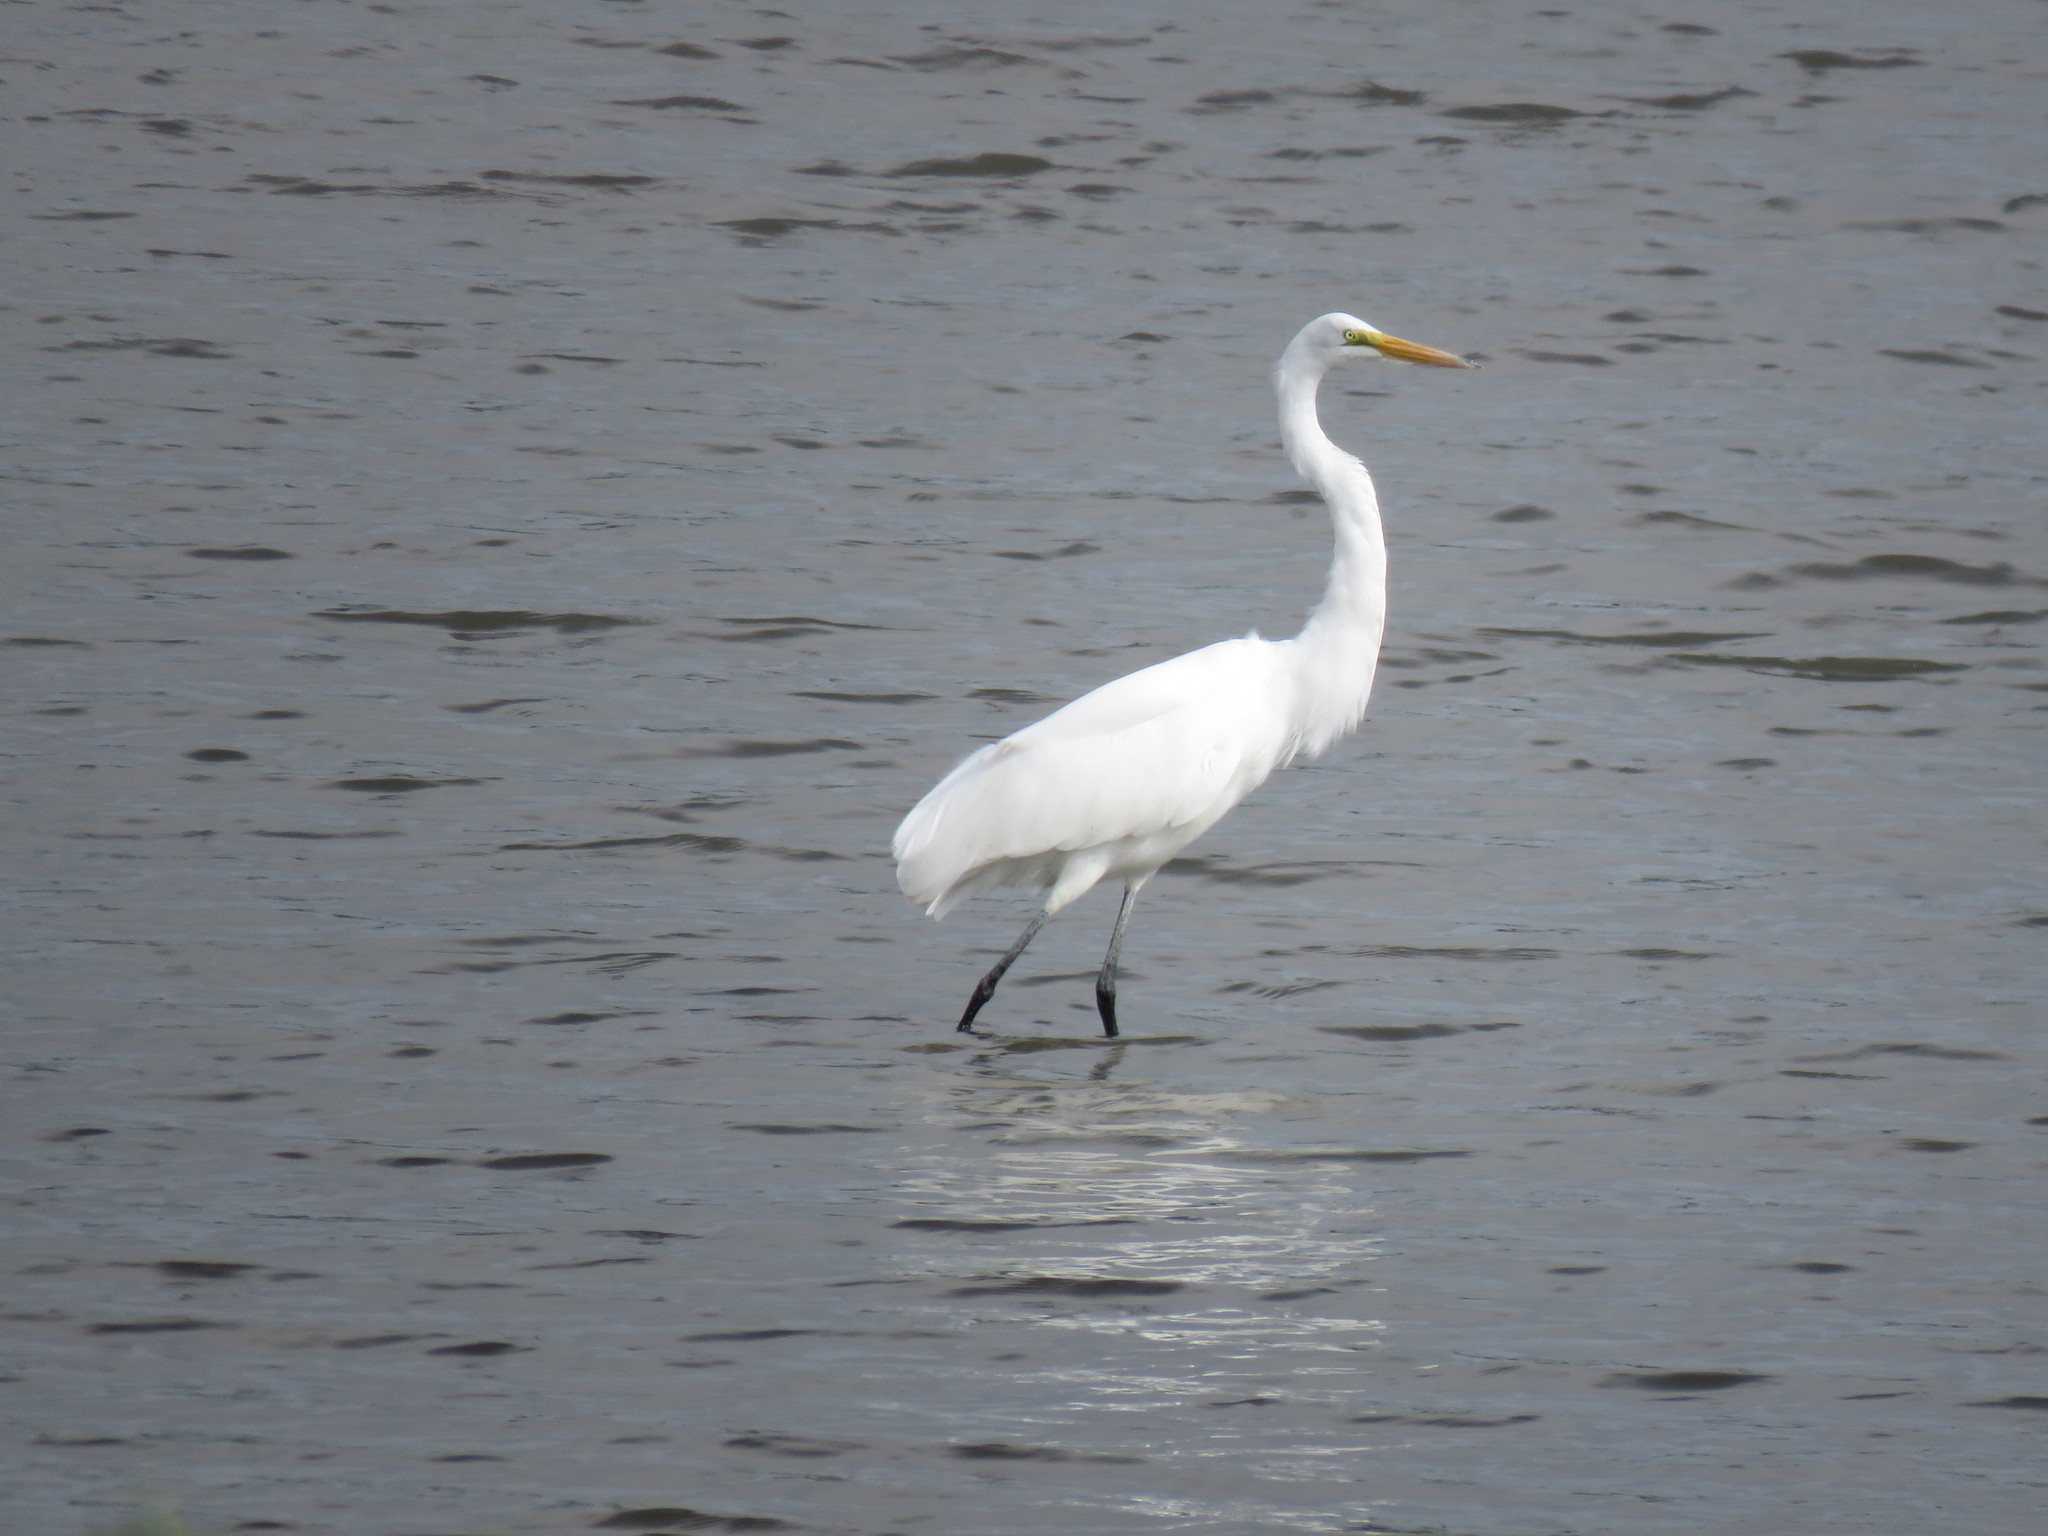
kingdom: Animalia
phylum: Chordata
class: Aves
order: Pelecaniformes
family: Ardeidae
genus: Ardea
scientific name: Ardea alba
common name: Great egret
